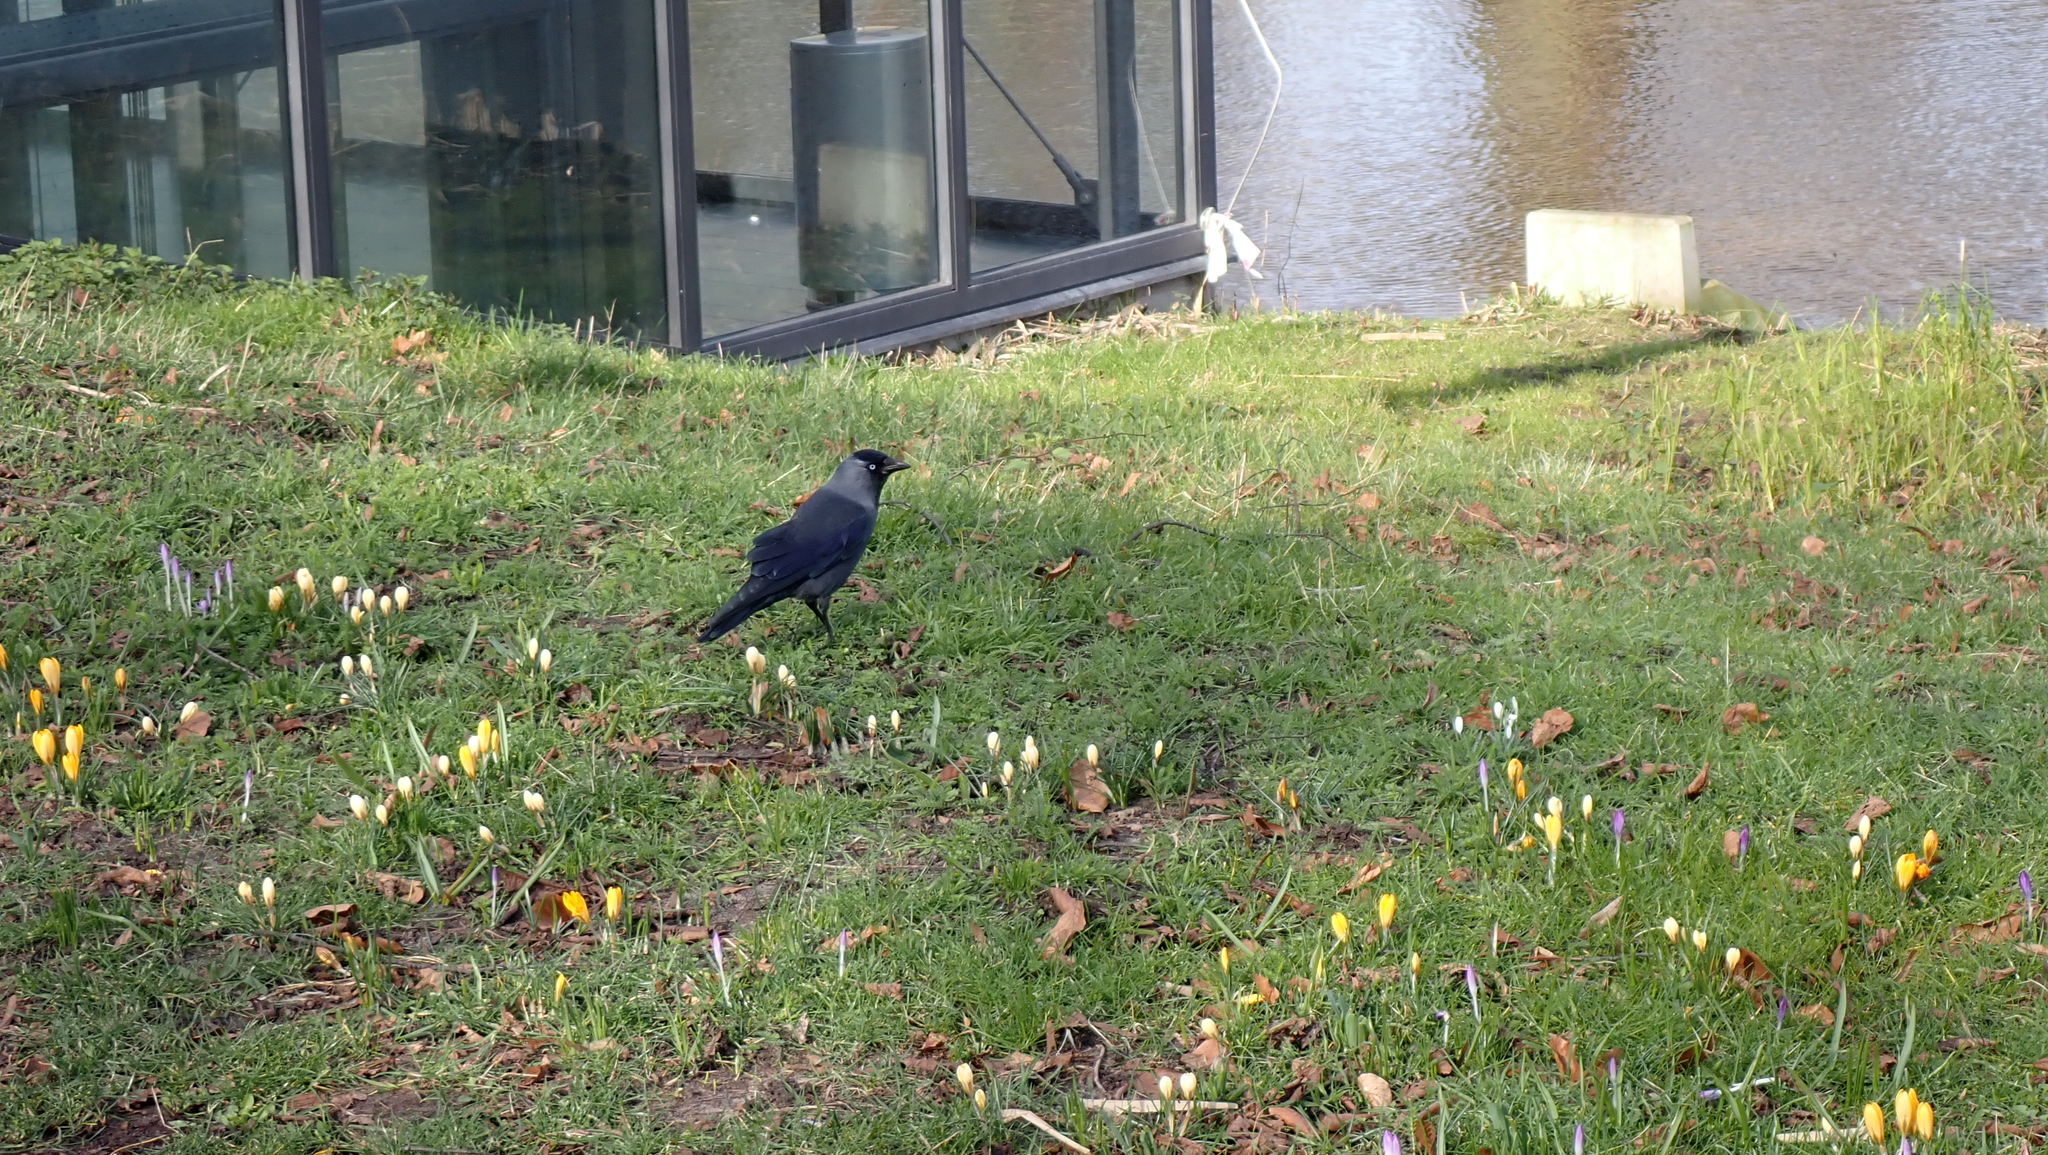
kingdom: Animalia
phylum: Chordata
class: Aves
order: Passeriformes
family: Corvidae
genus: Coloeus
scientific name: Coloeus monedula
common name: Western jackdaw
